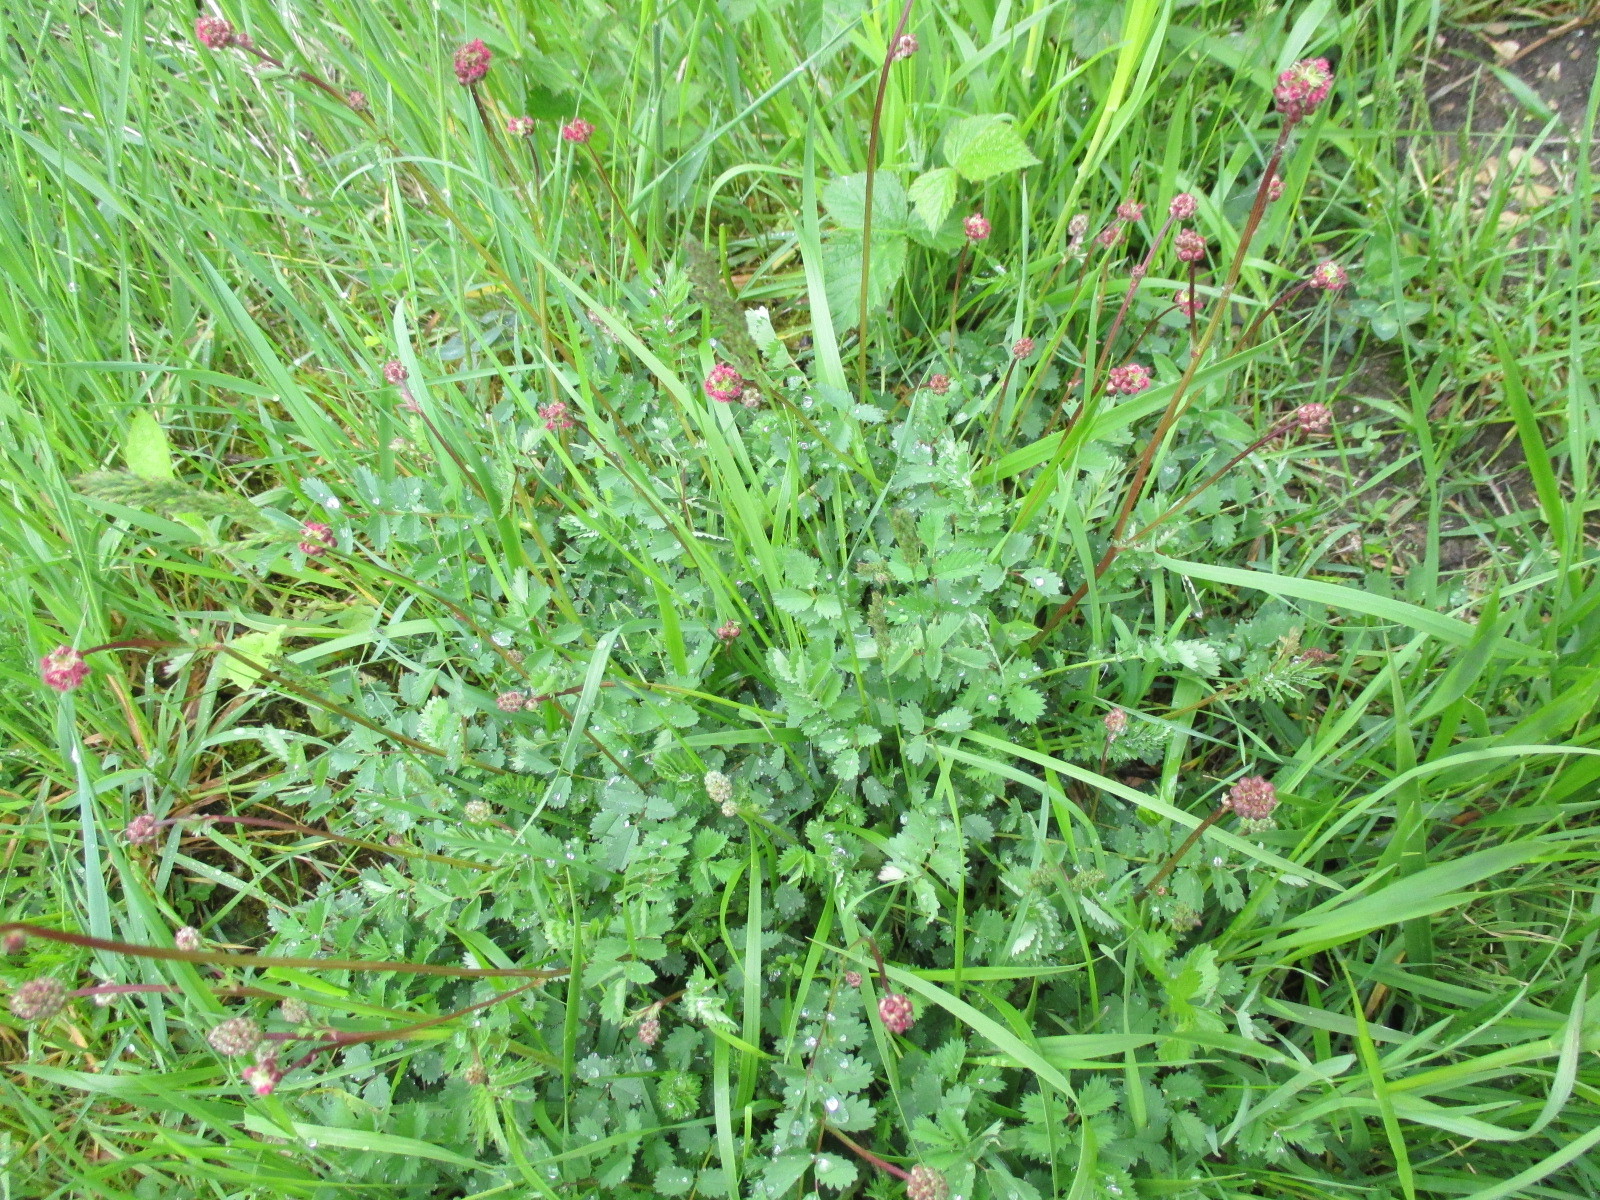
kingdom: Plantae
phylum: Tracheophyta
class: Magnoliopsida
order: Rosales
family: Rosaceae
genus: Poterium
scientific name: Poterium sanguisorba
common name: Salad burnet
